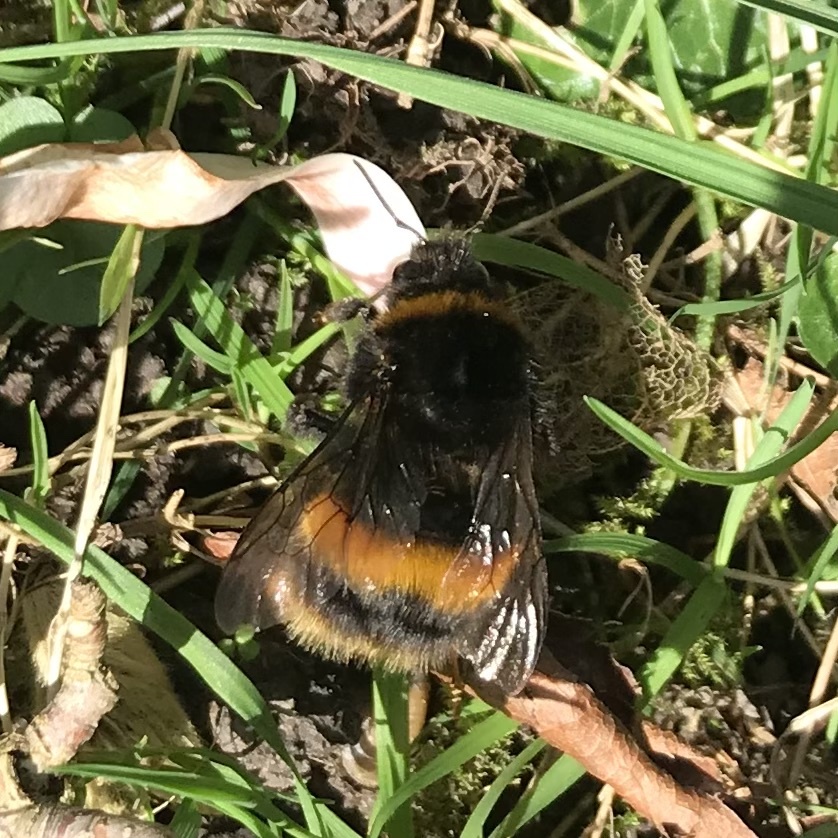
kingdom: Animalia
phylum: Arthropoda
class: Insecta
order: Hymenoptera
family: Apidae
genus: Bombus
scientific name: Bombus terrestris
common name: Buff-tailed bumblebee
